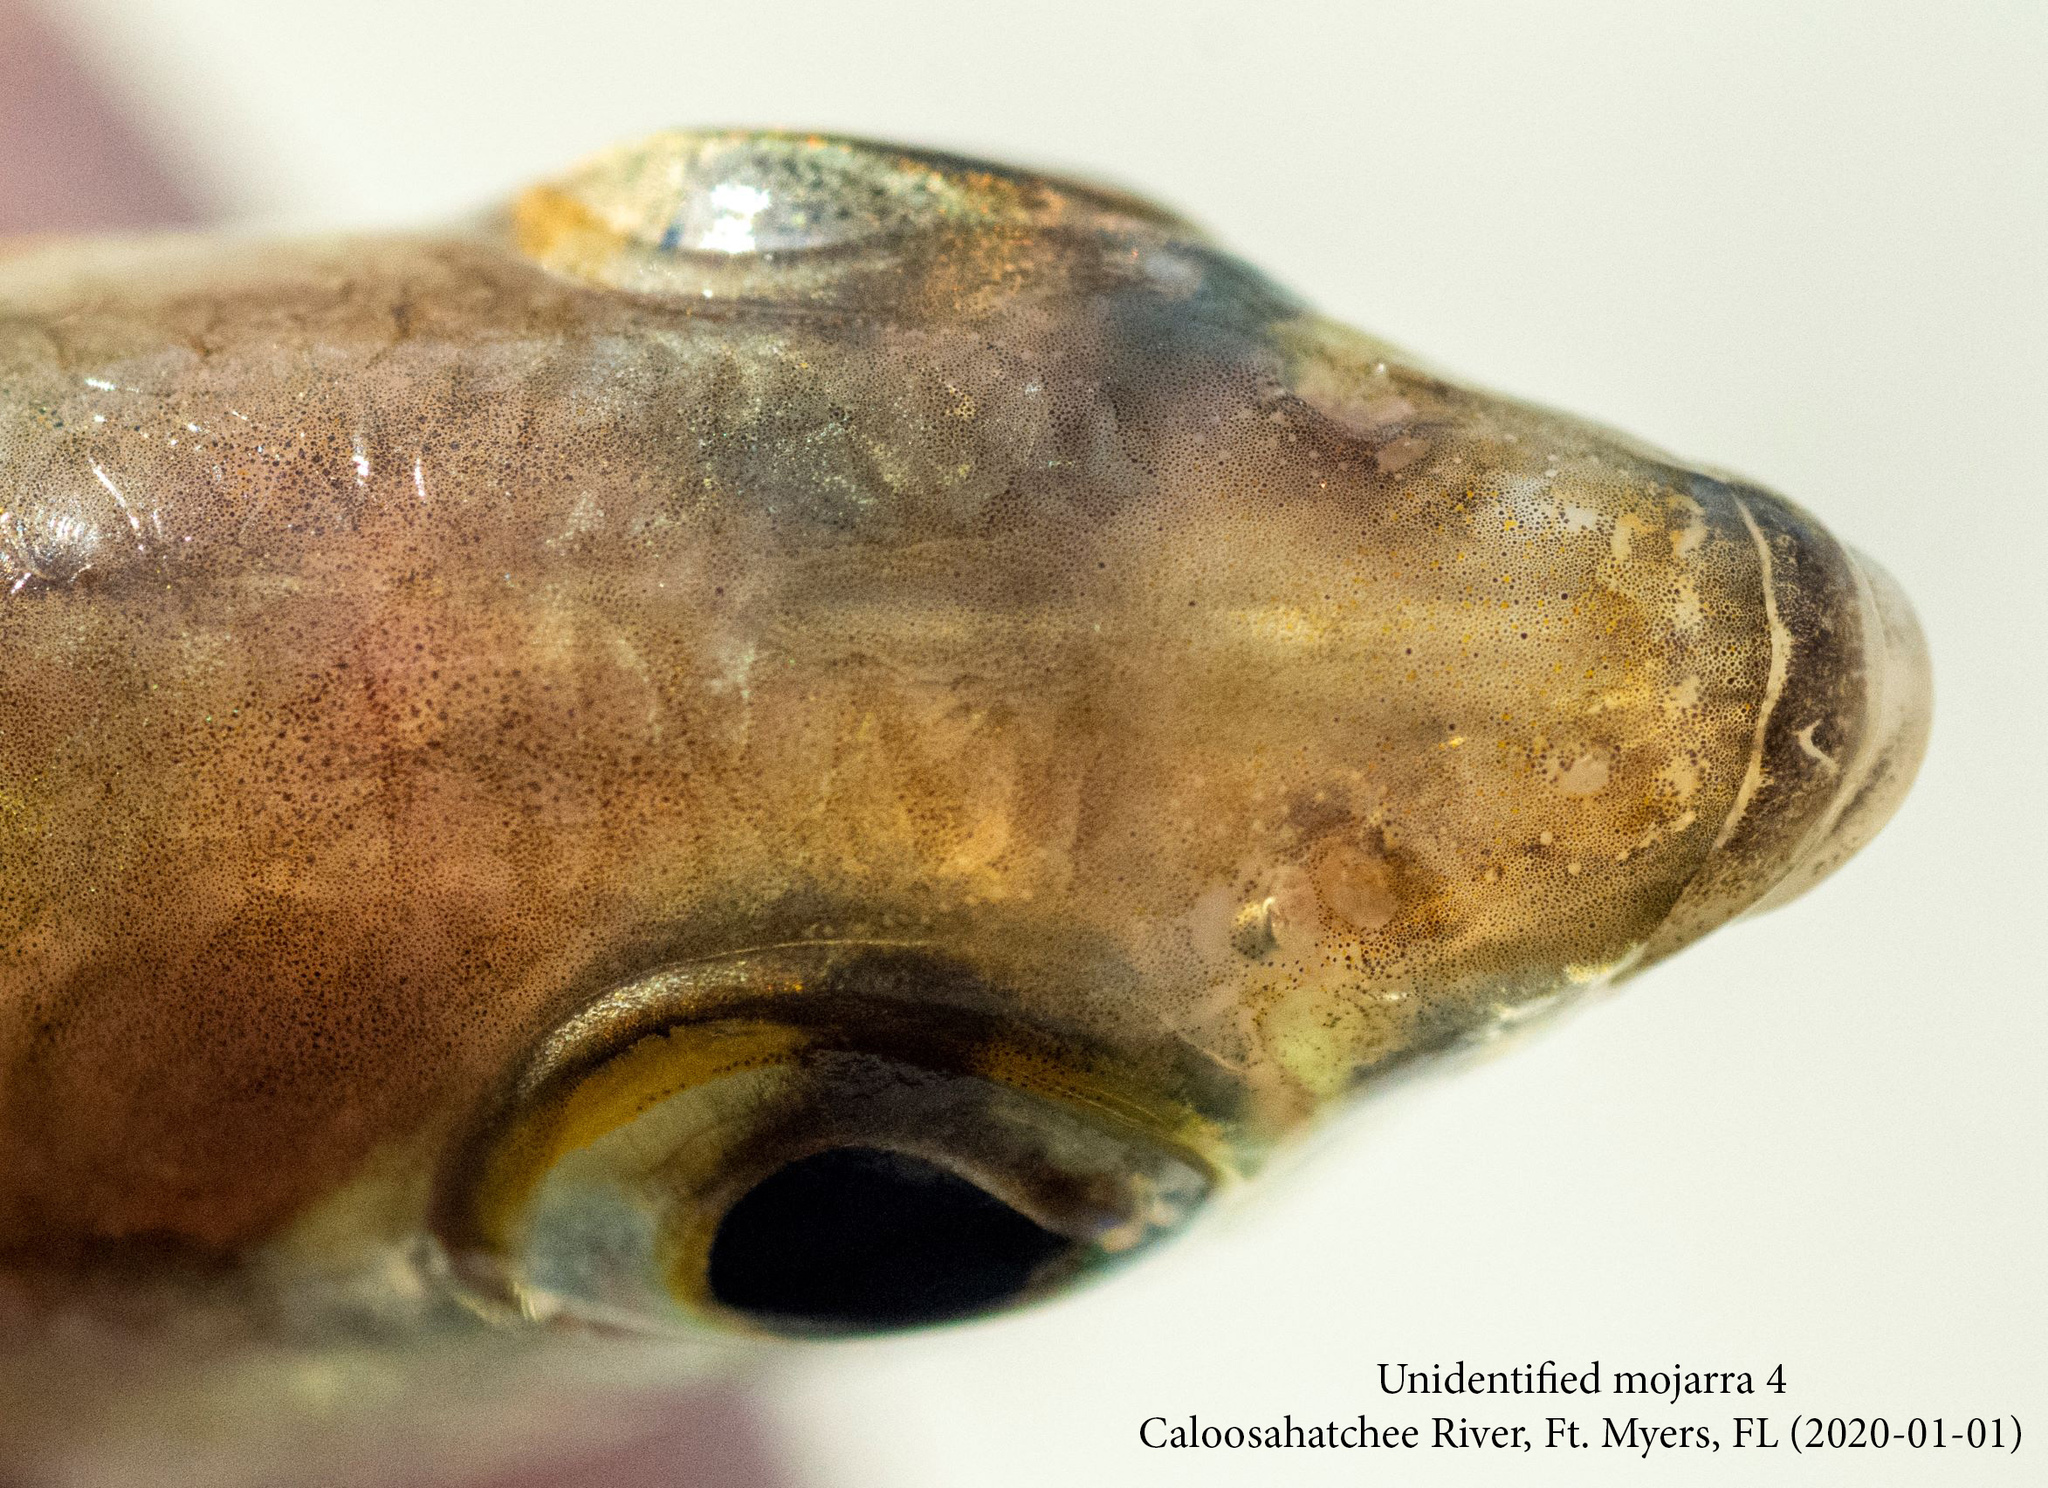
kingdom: Animalia
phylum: Chordata
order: Perciformes
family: Gerreidae
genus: Eucinostomus
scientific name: Eucinostomus harengulus
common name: Tidewater mojarra
